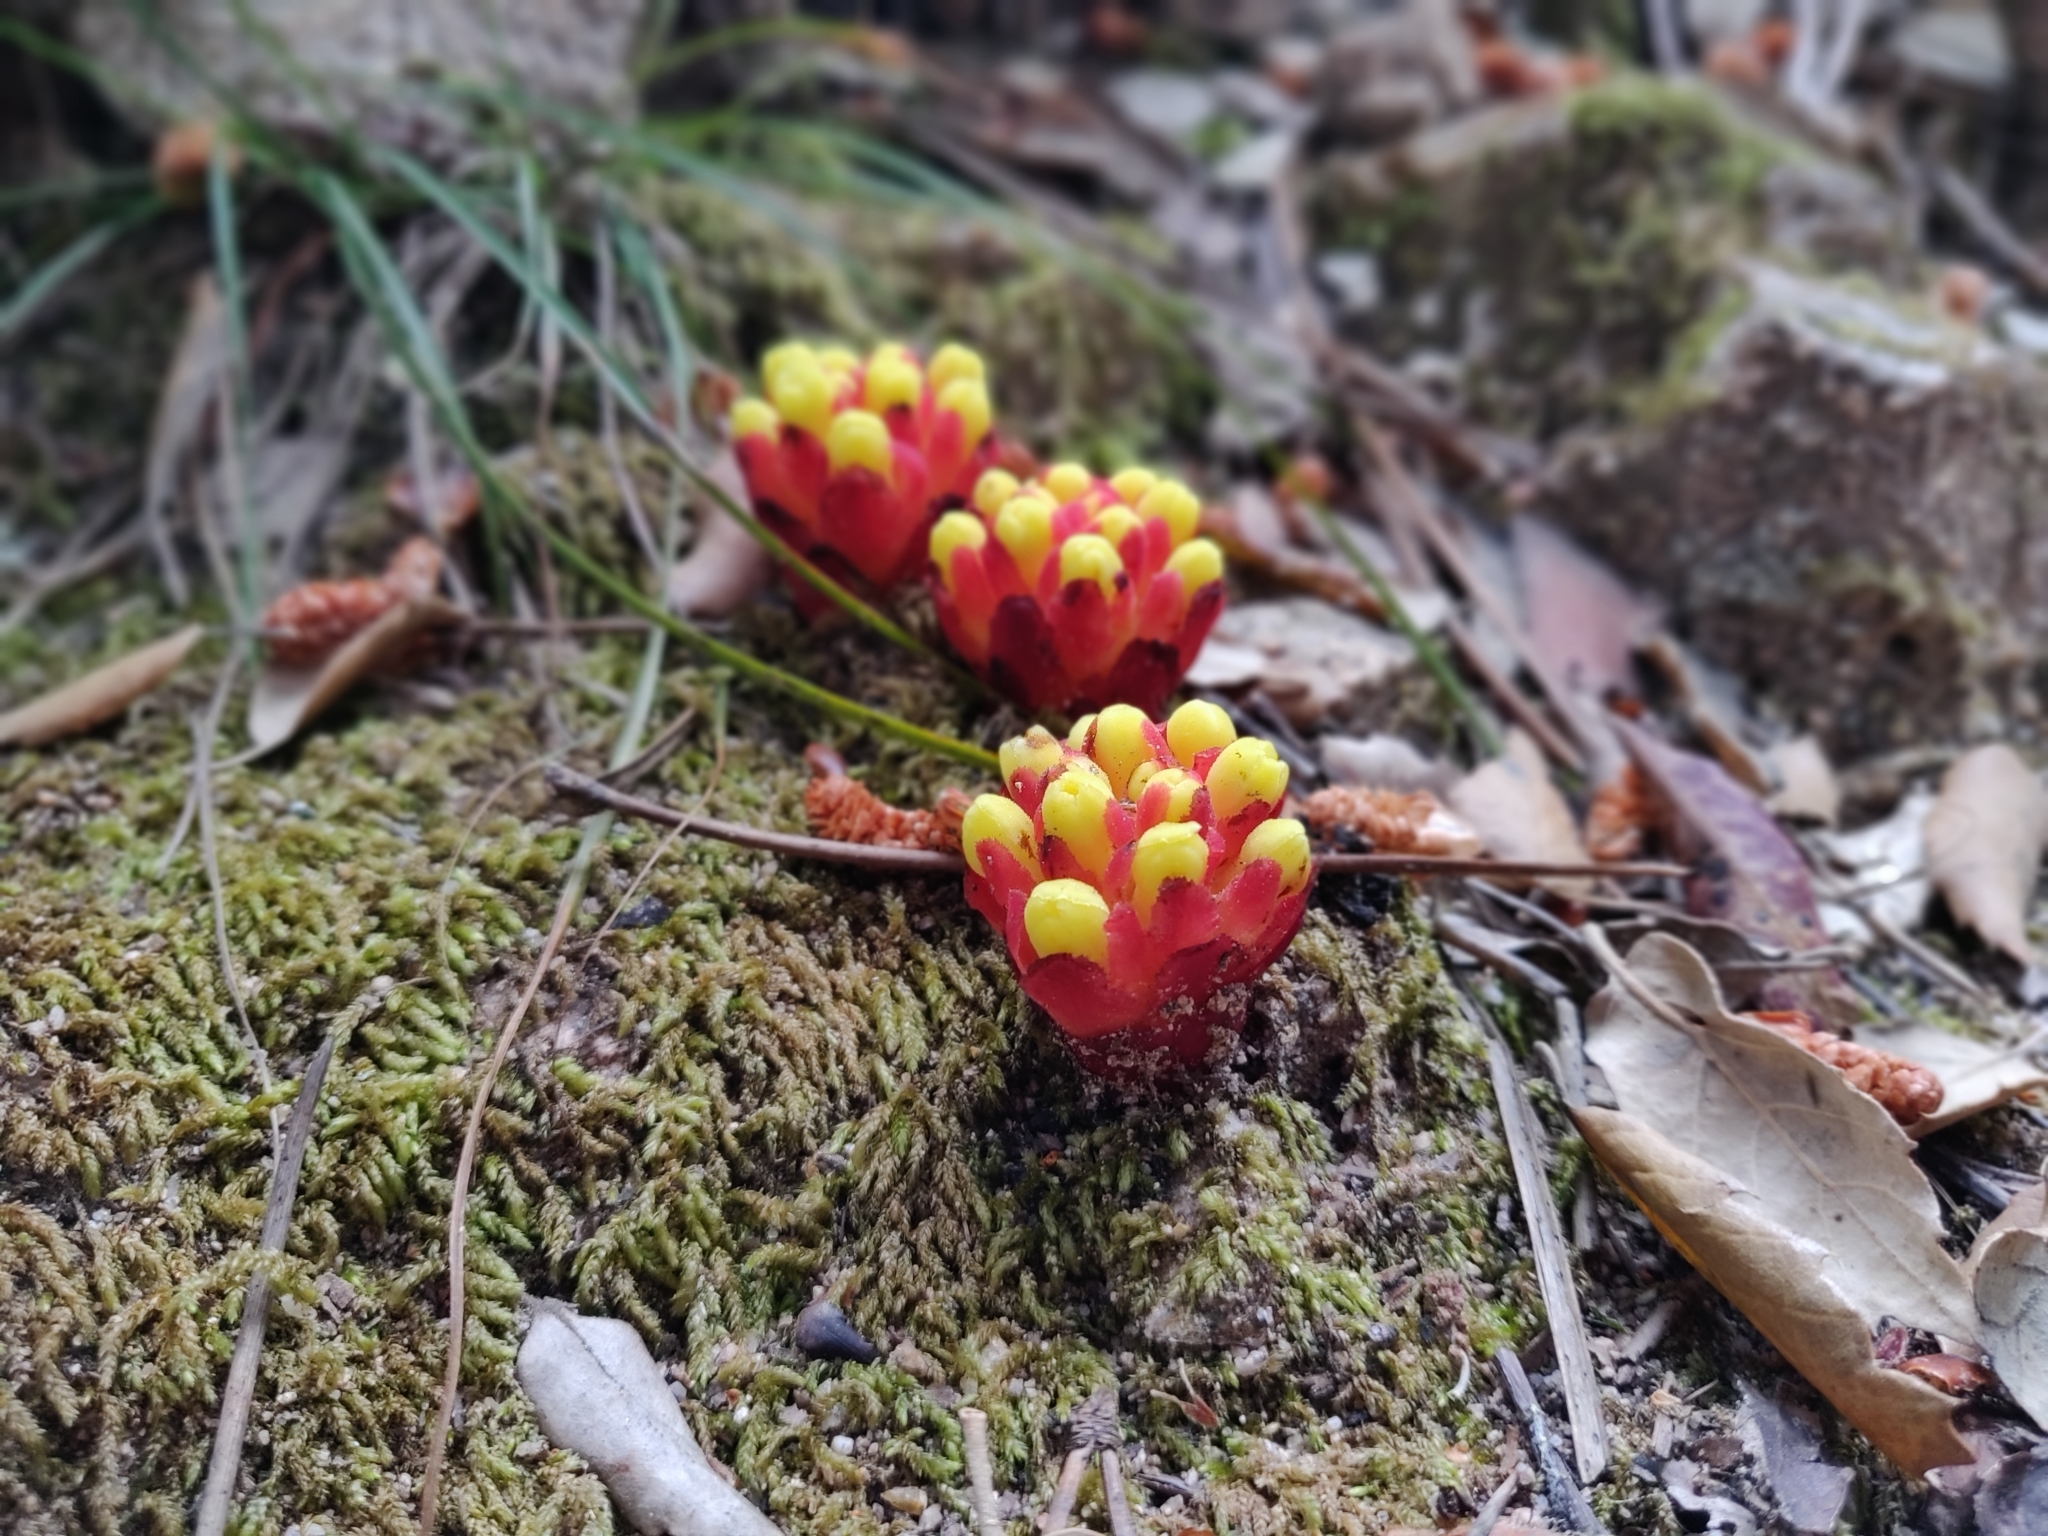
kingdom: Plantae
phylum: Tracheophyta
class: Magnoliopsida
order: Malvales
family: Cytinaceae
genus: Cytinus
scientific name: Cytinus hypocistis
